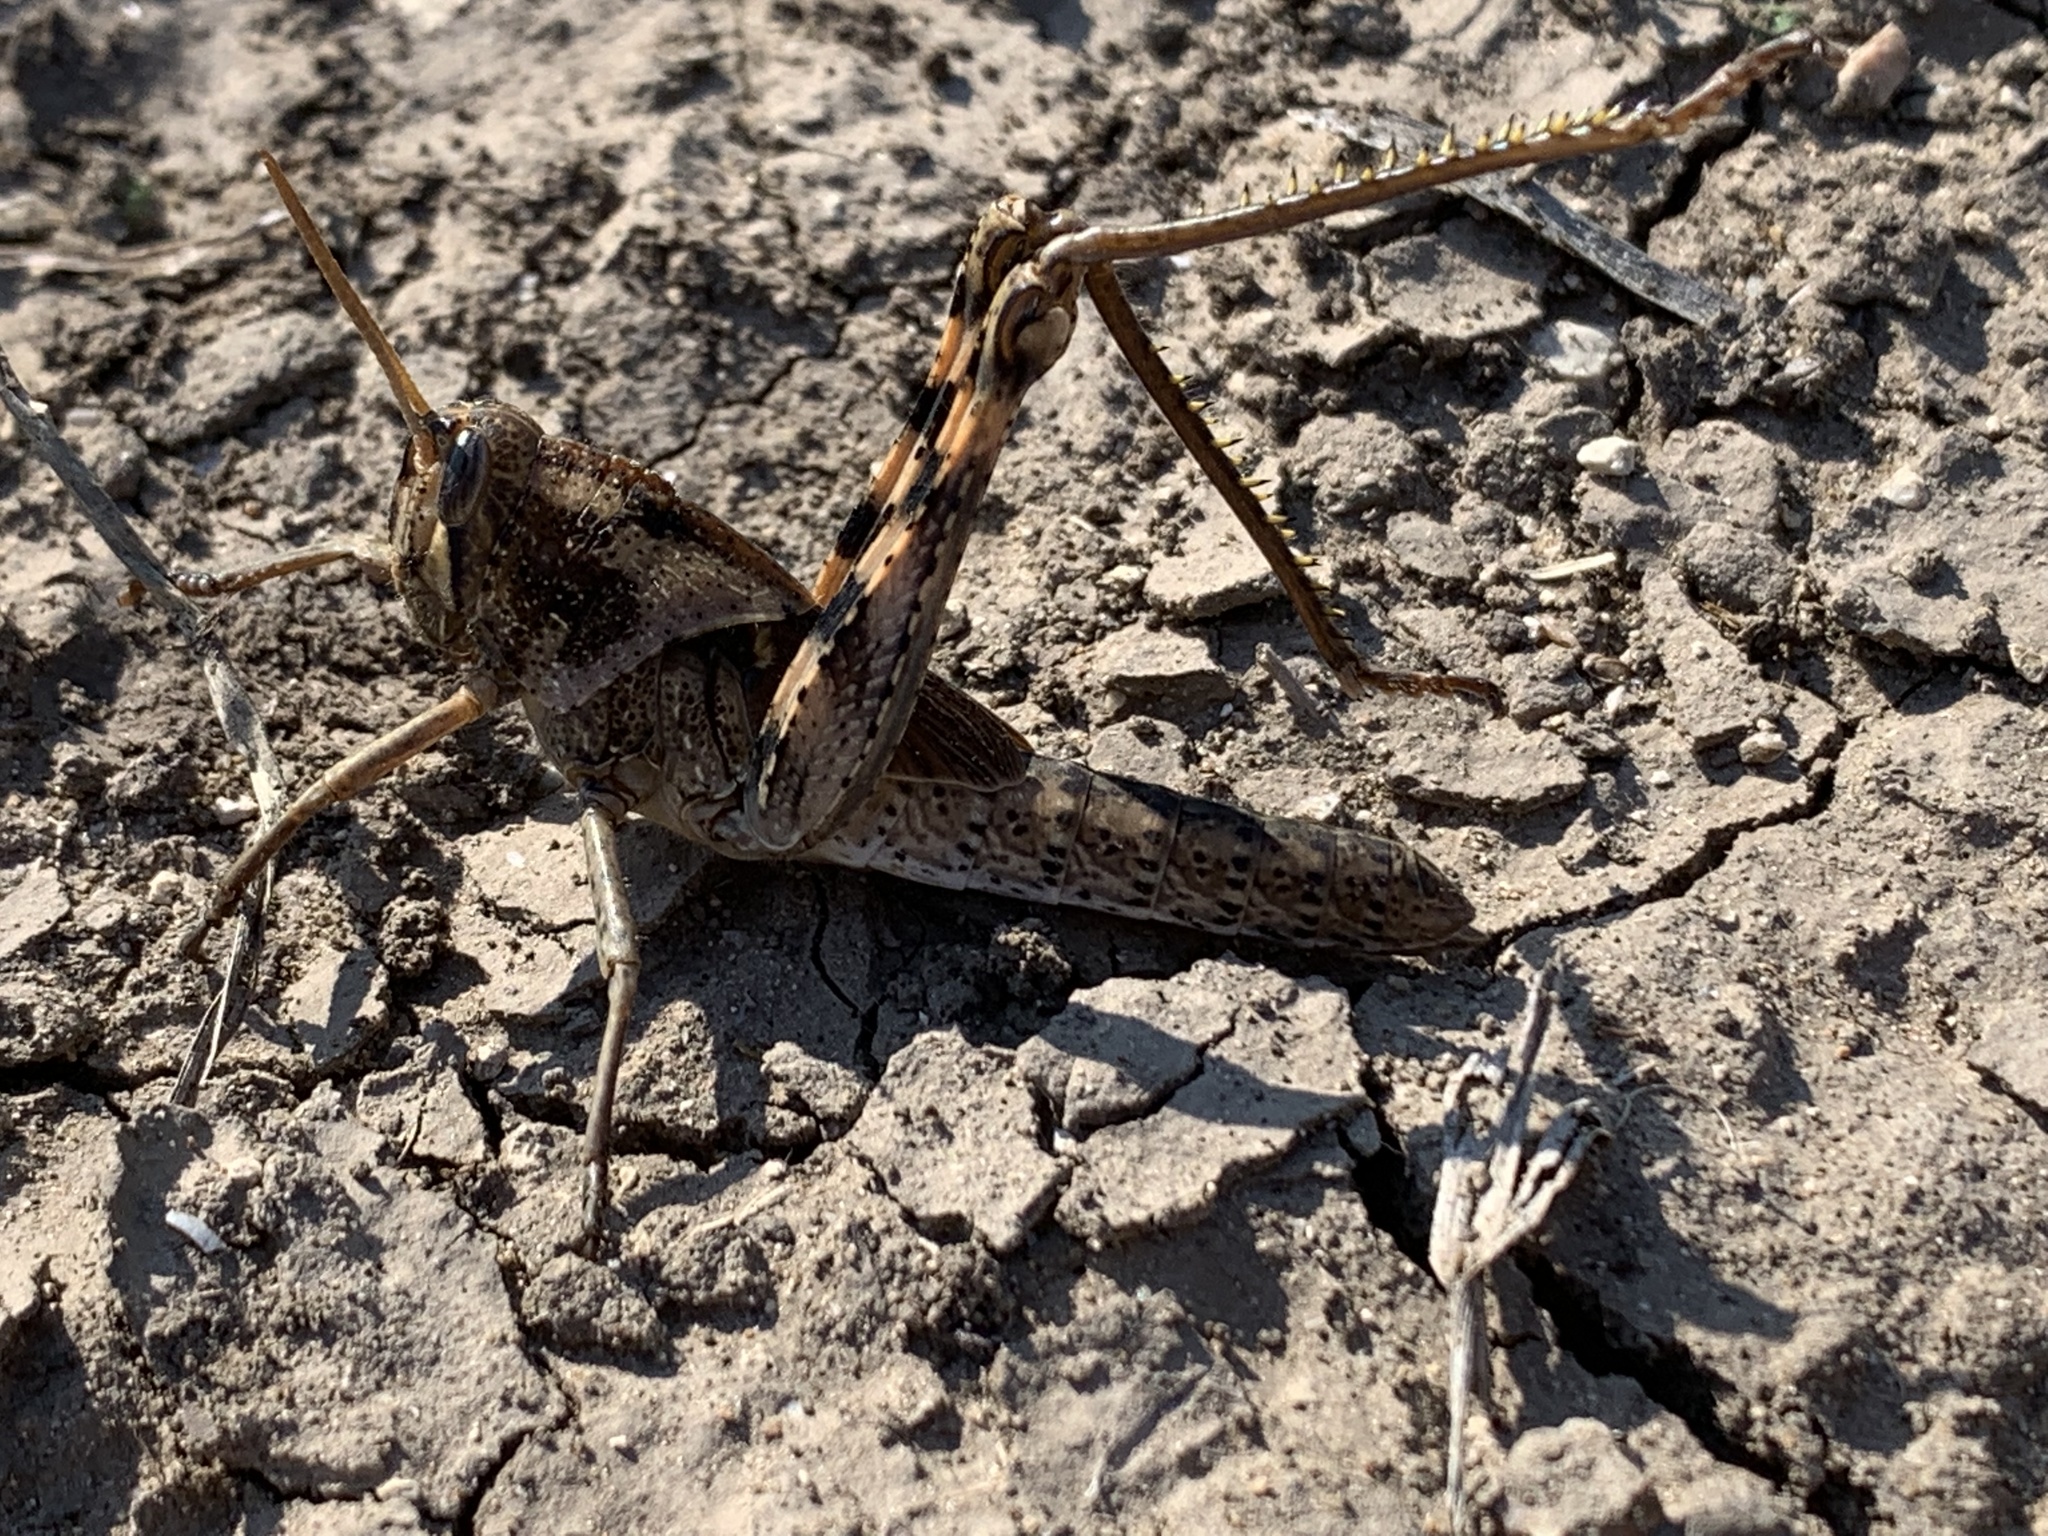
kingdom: Animalia
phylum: Arthropoda
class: Insecta
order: Orthoptera
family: Acrididae
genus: Schistocerca
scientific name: Schistocerca nitens
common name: Vagrant grasshopper
